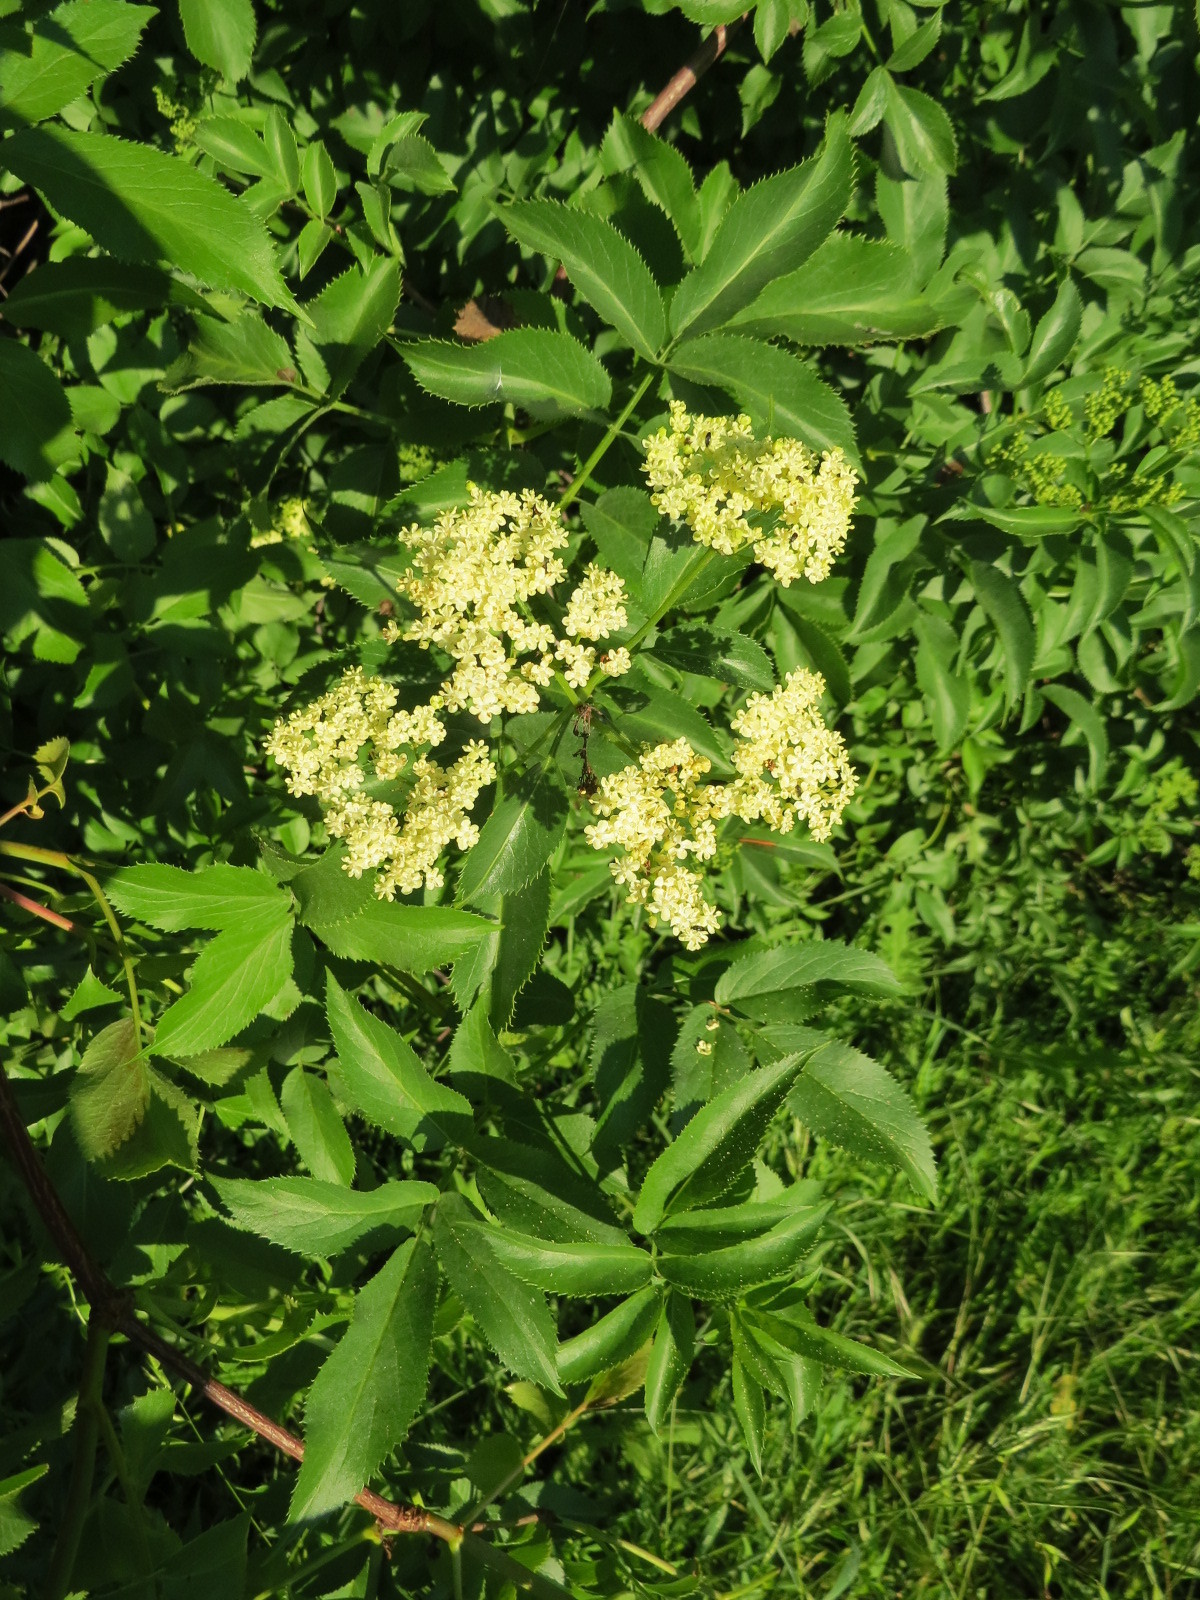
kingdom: Plantae
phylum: Tracheophyta
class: Magnoliopsida
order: Dipsacales
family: Viburnaceae
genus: Sambucus
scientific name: Sambucus cerulea
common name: Blue elder
